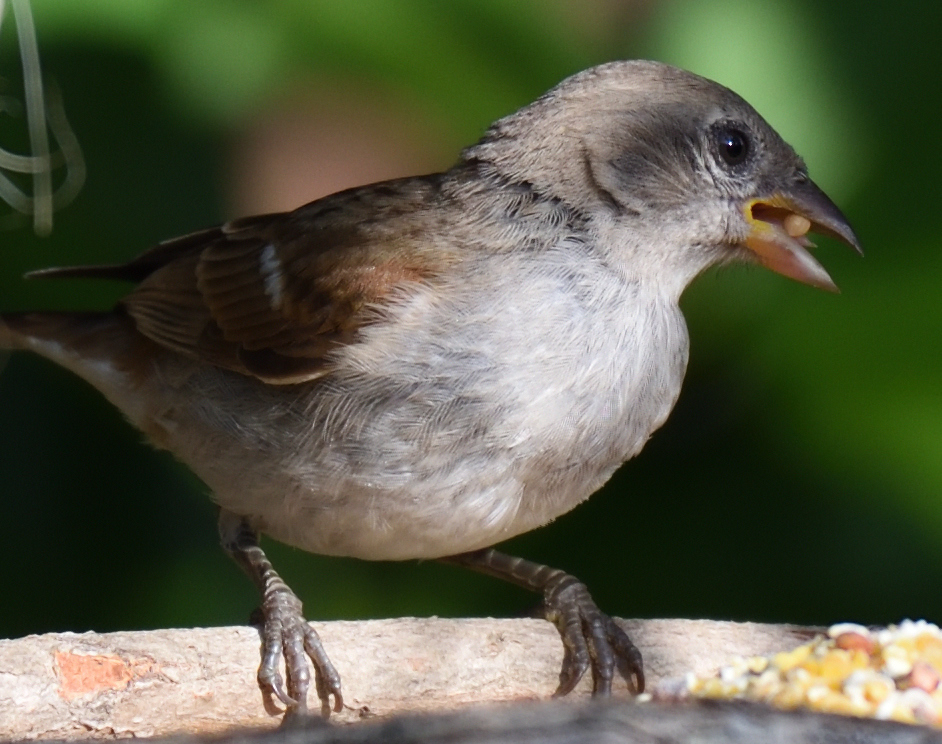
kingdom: Animalia
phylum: Chordata
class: Aves
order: Passeriformes
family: Passeridae
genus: Passer
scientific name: Passer diffusus
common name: Southern grey-headed sparrow
